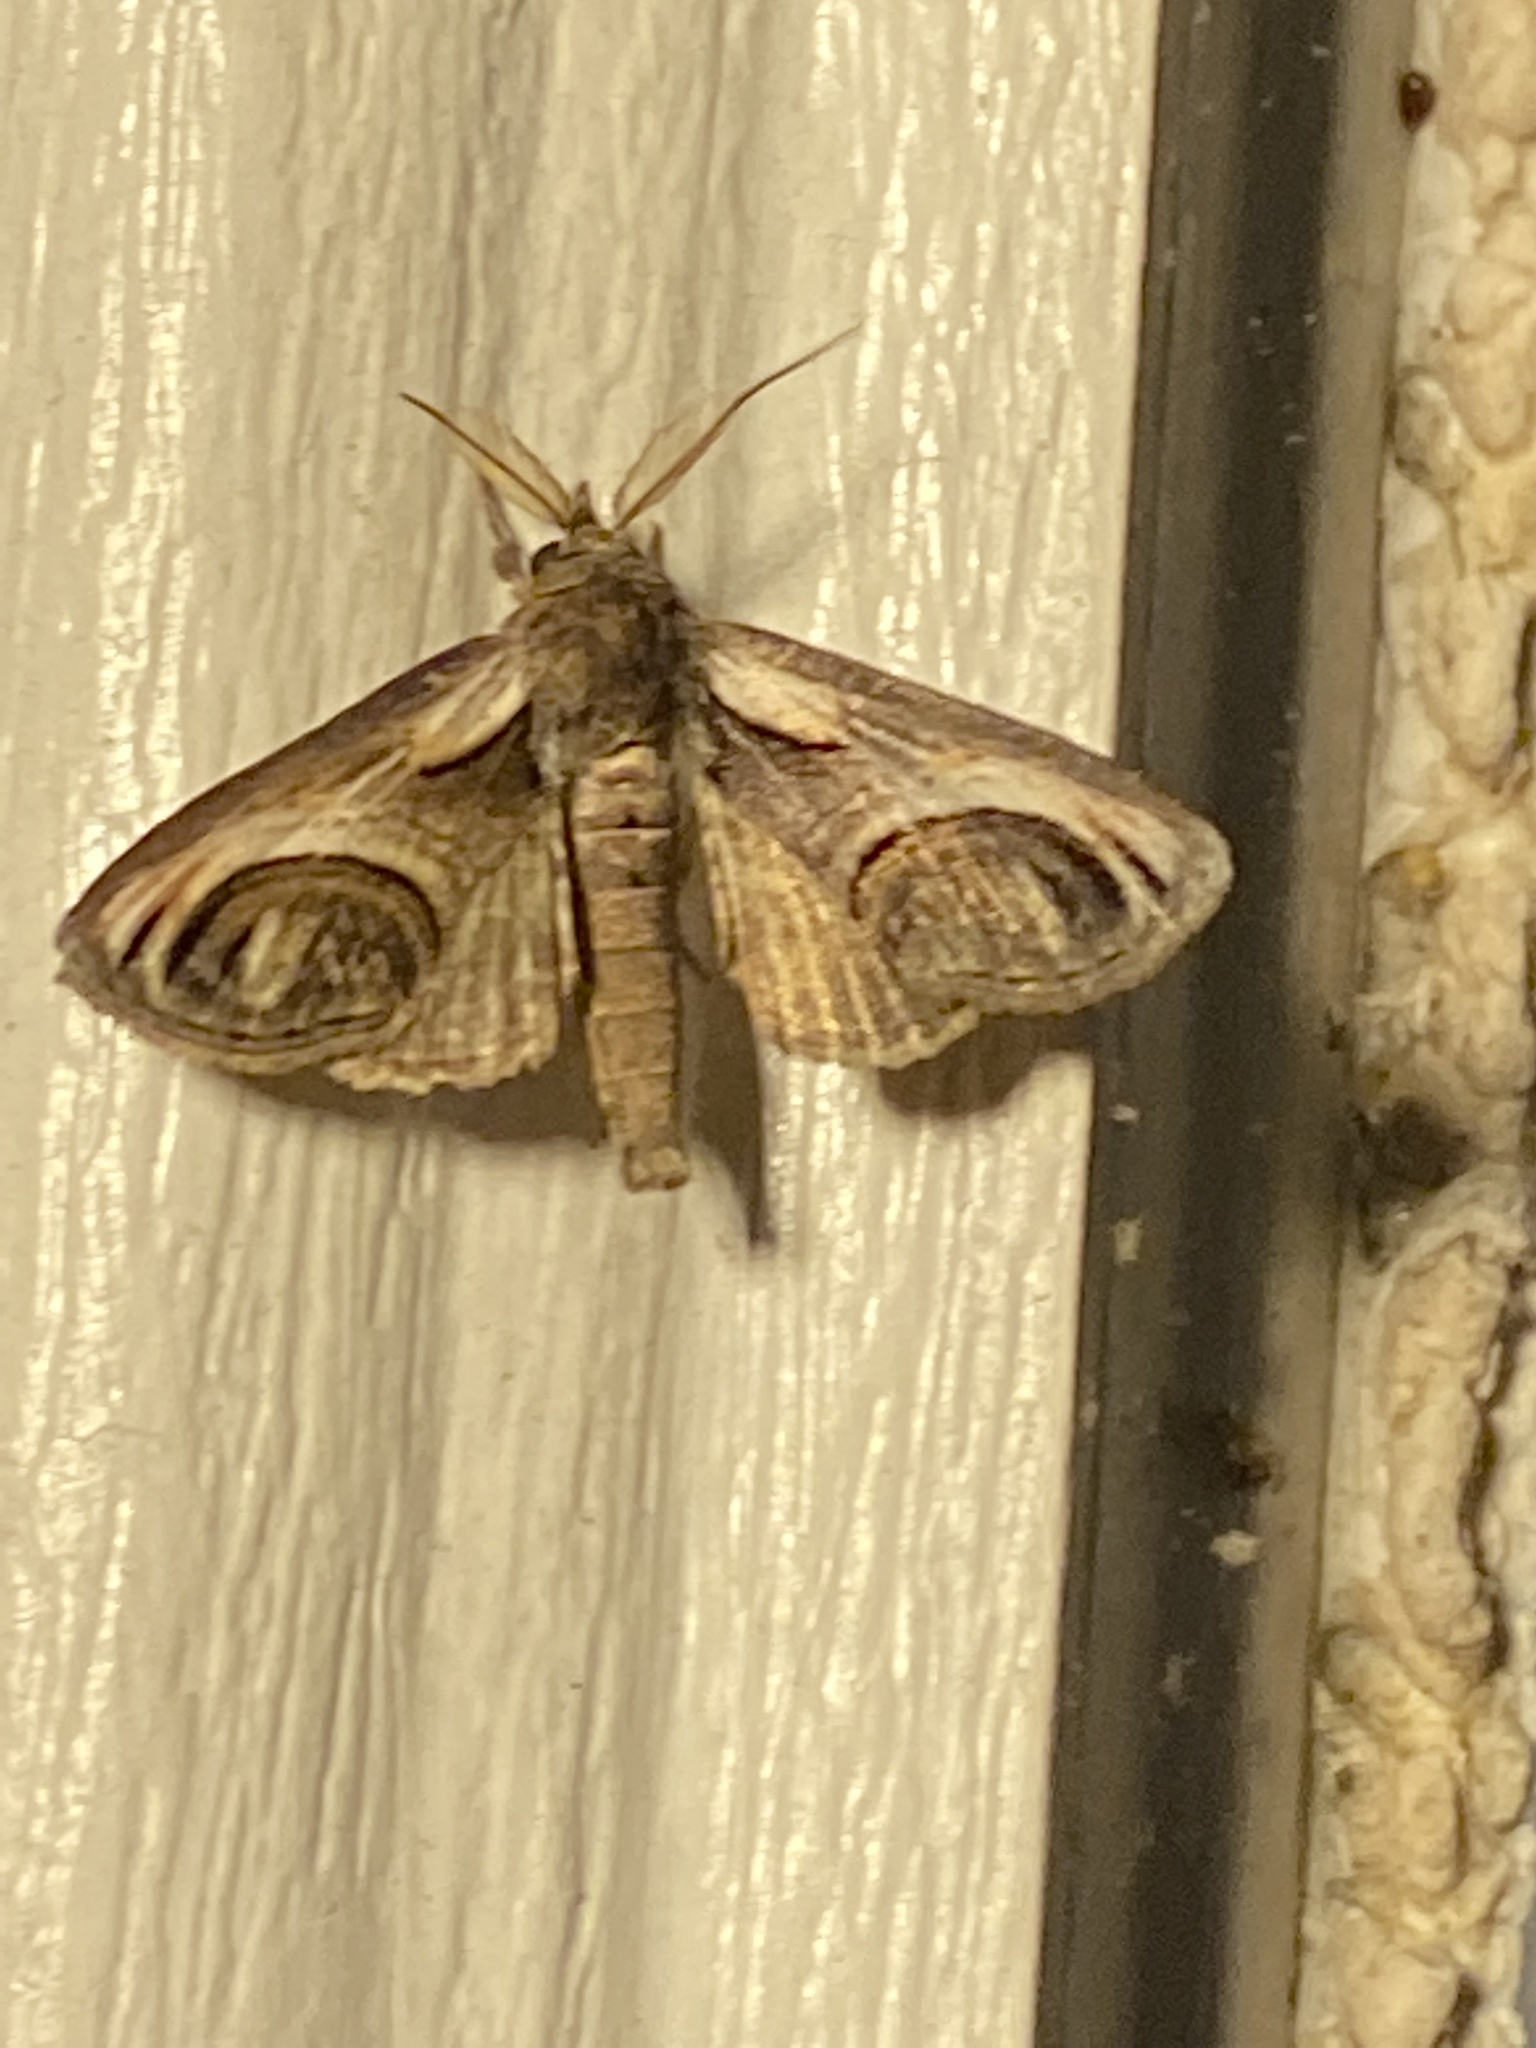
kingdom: Animalia
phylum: Arthropoda
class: Insecta
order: Lepidoptera
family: Euteliidae
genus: Paectes
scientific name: Paectes oculatrix
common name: Eyed paectes moth
